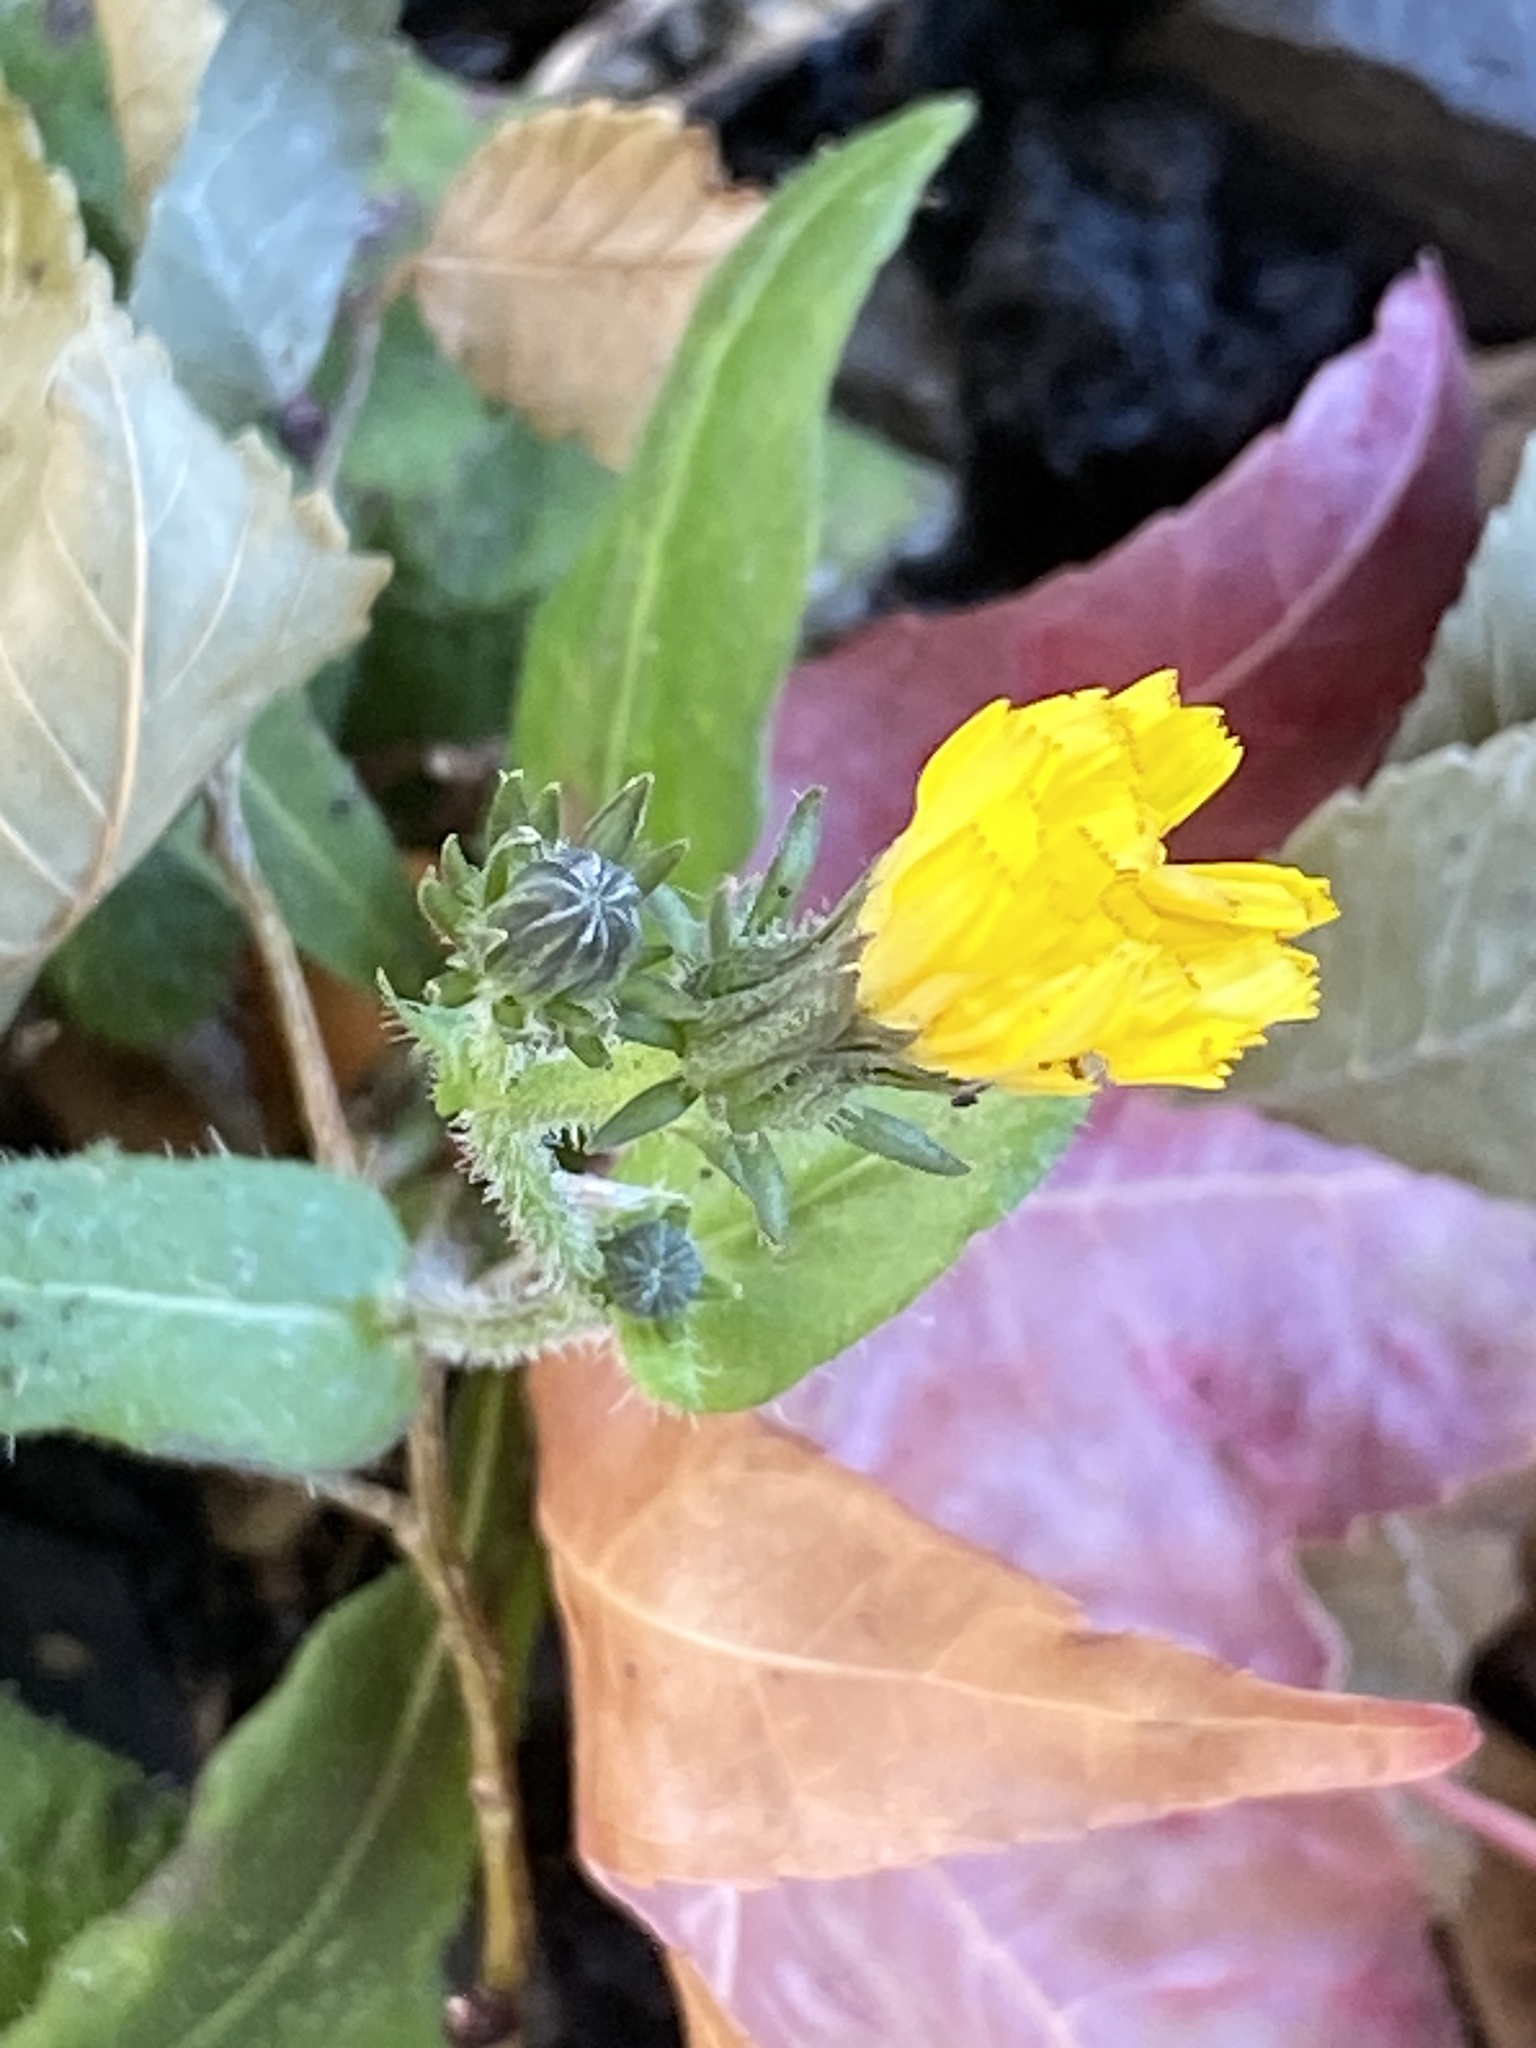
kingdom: Plantae
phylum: Tracheophyta
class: Magnoliopsida
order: Asterales
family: Asteraceae
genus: Picris
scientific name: Picris hieracioides
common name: Hawkweed oxtongue
